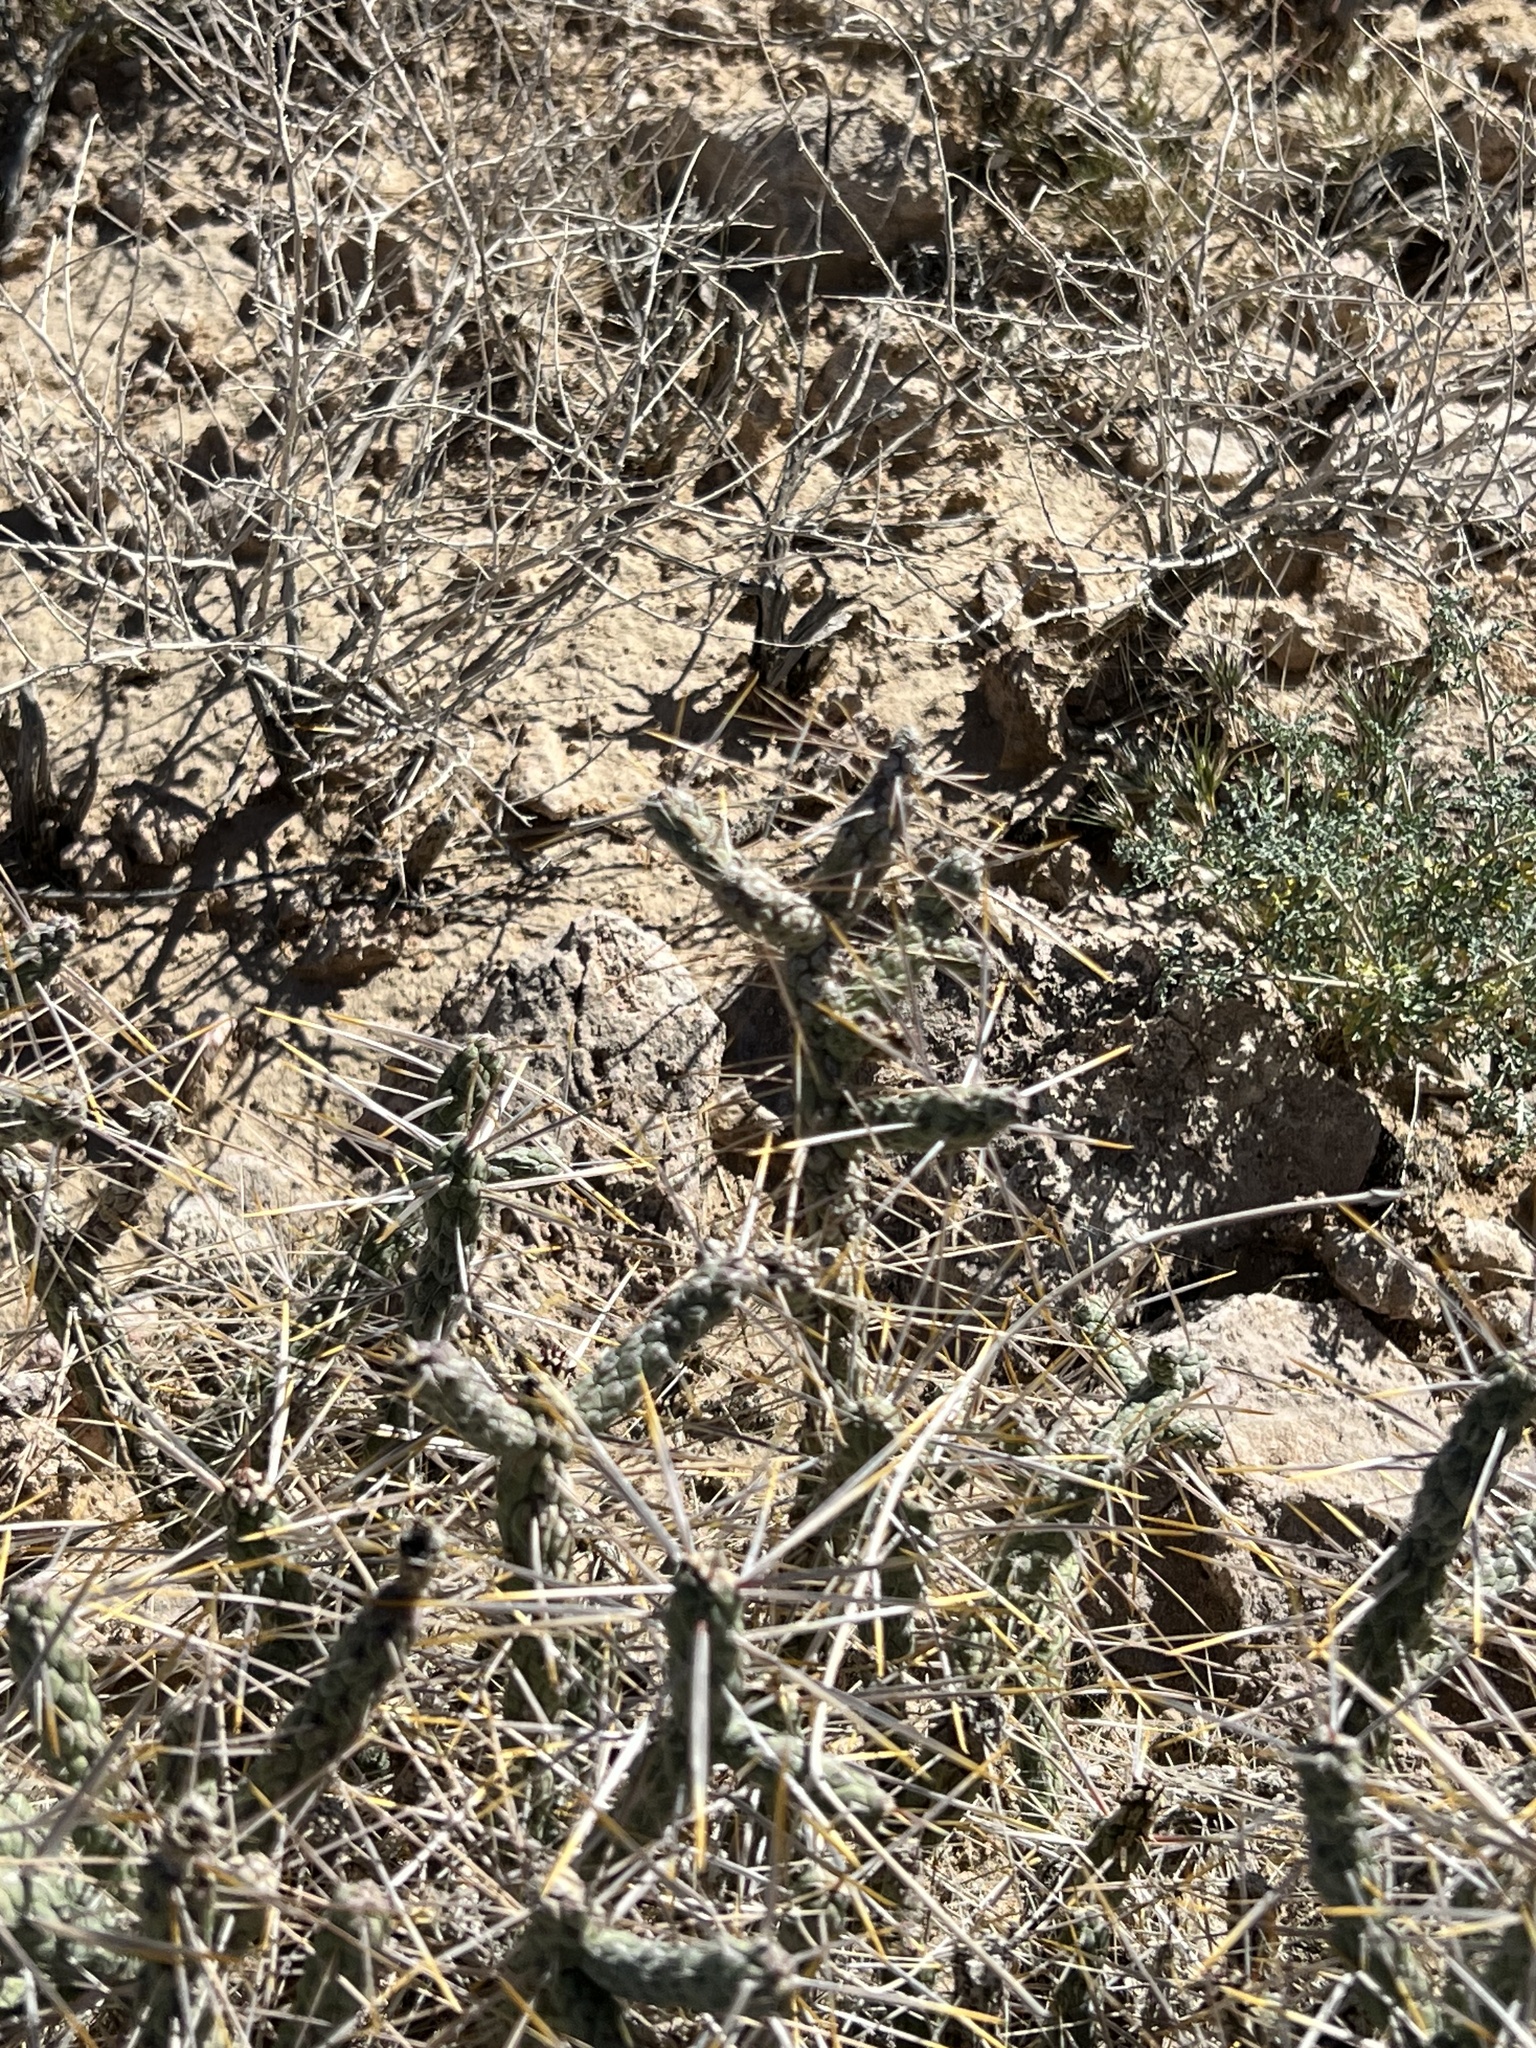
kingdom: Plantae
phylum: Tracheophyta
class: Magnoliopsida
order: Caryophyllales
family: Cactaceae
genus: Cylindropuntia
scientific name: Cylindropuntia ramosissima
